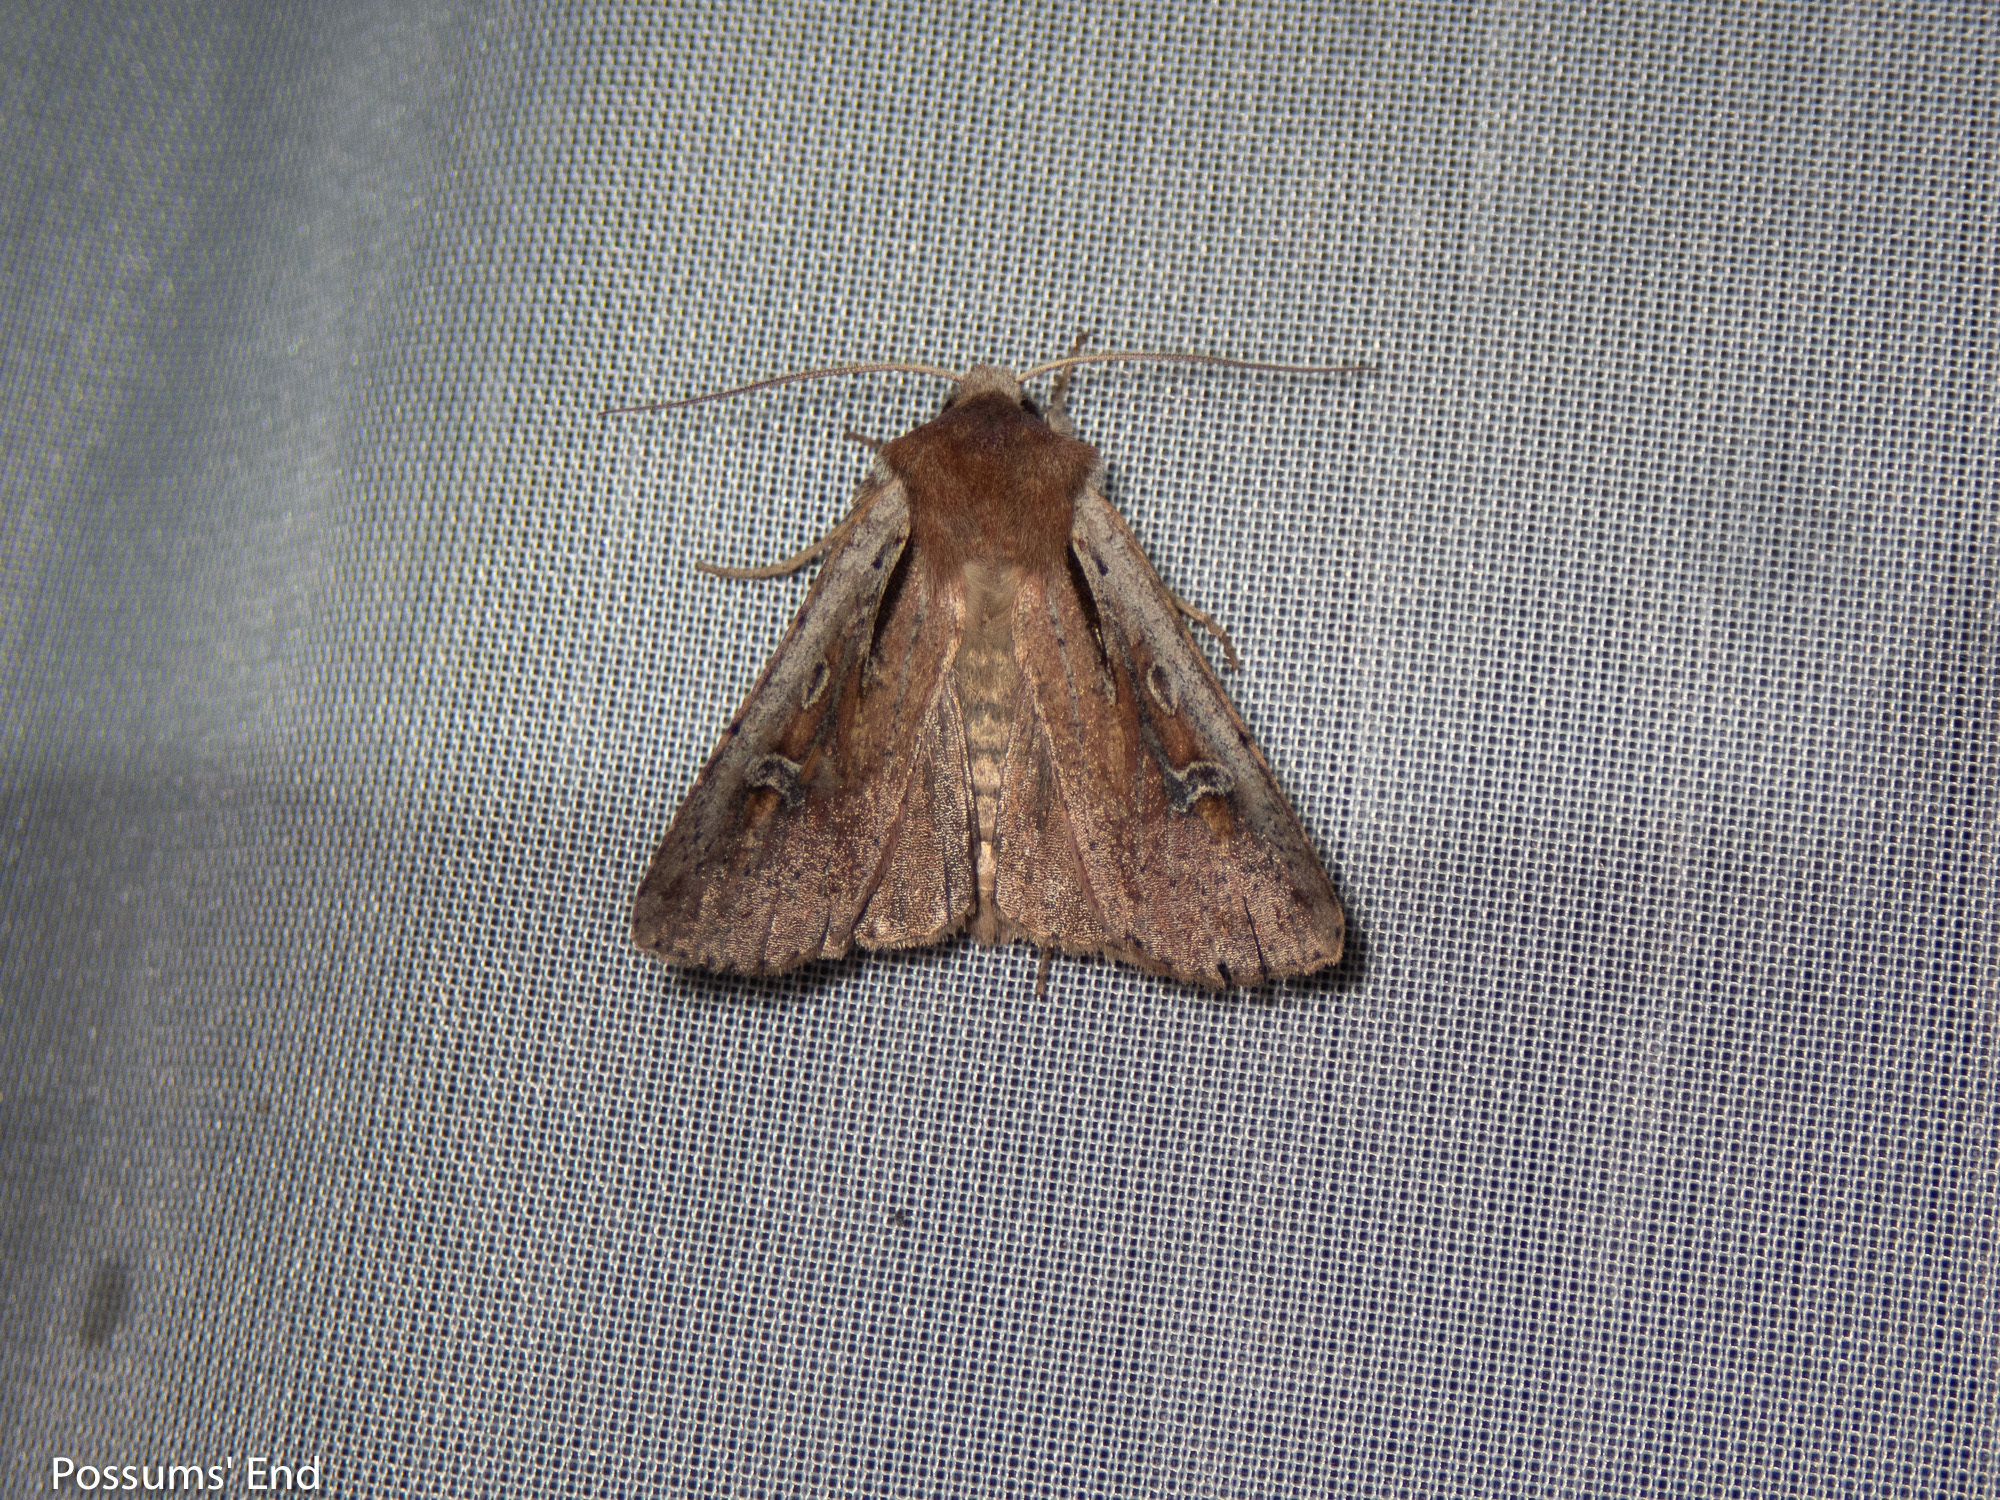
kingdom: Animalia
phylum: Arthropoda
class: Insecta
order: Lepidoptera
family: Noctuidae
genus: Ichneutica
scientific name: Ichneutica atristriga
